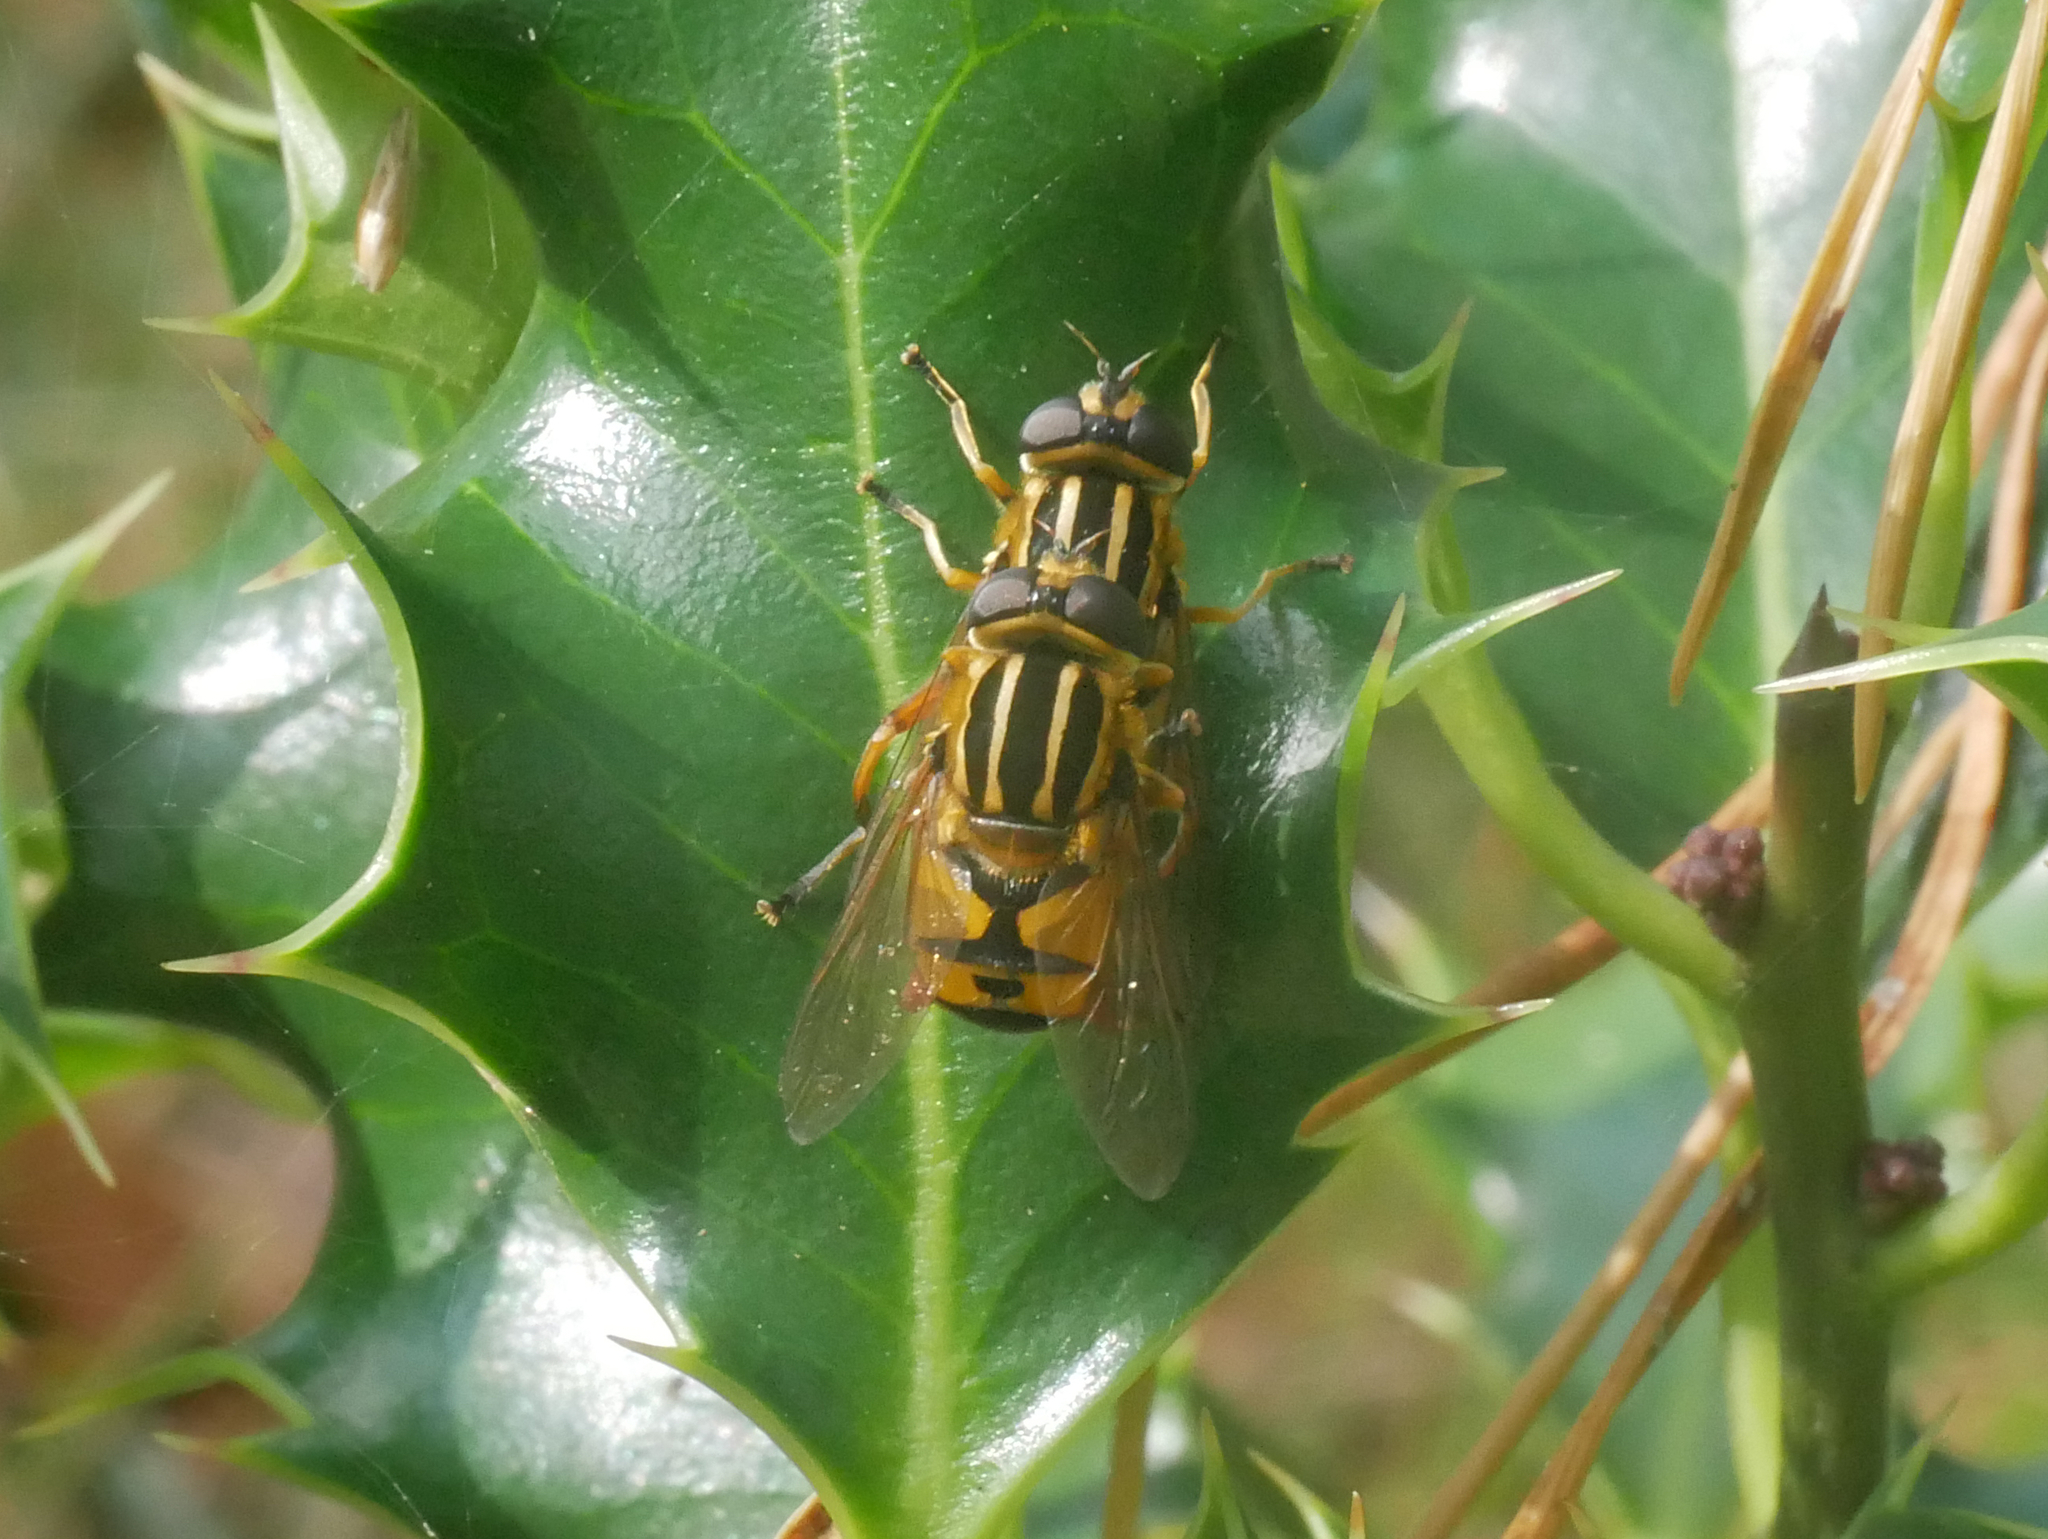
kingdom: Animalia
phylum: Arthropoda
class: Insecta
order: Diptera
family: Syrphidae
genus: Helophilus
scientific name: Helophilus pendulus
